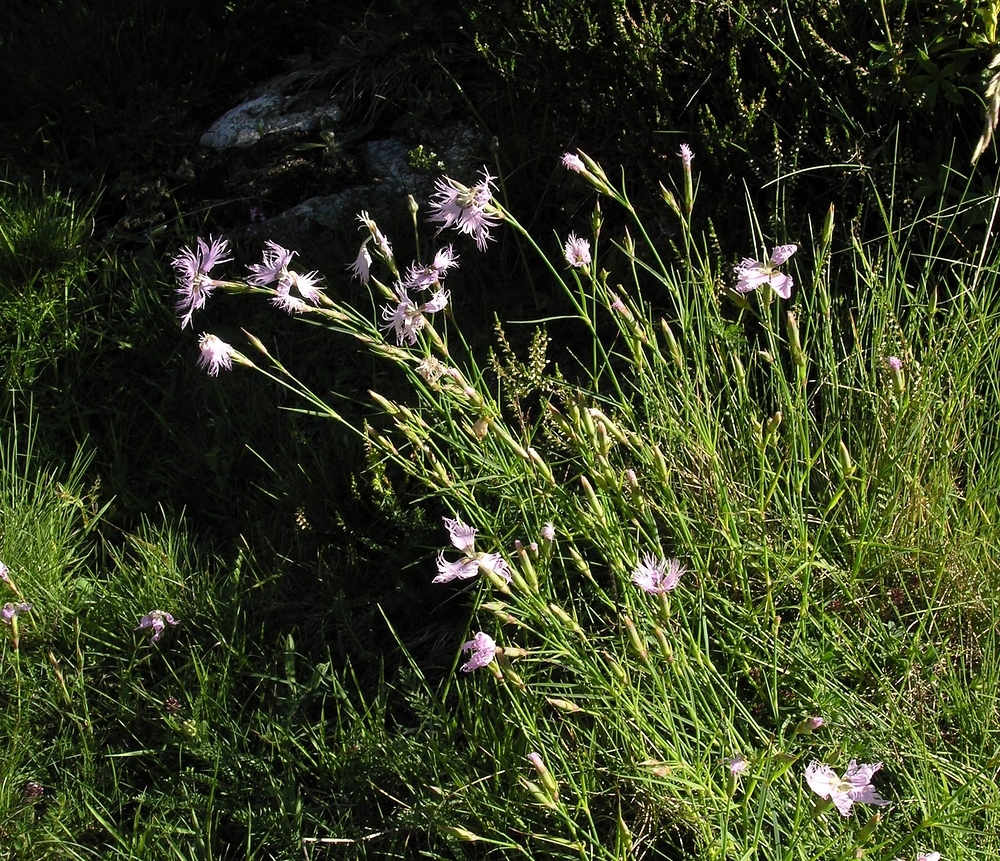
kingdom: Plantae
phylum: Tracheophyta
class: Magnoliopsida
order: Caryophyllales
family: Caryophyllaceae
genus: Dianthus
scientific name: Dianthus hyssopifolius
